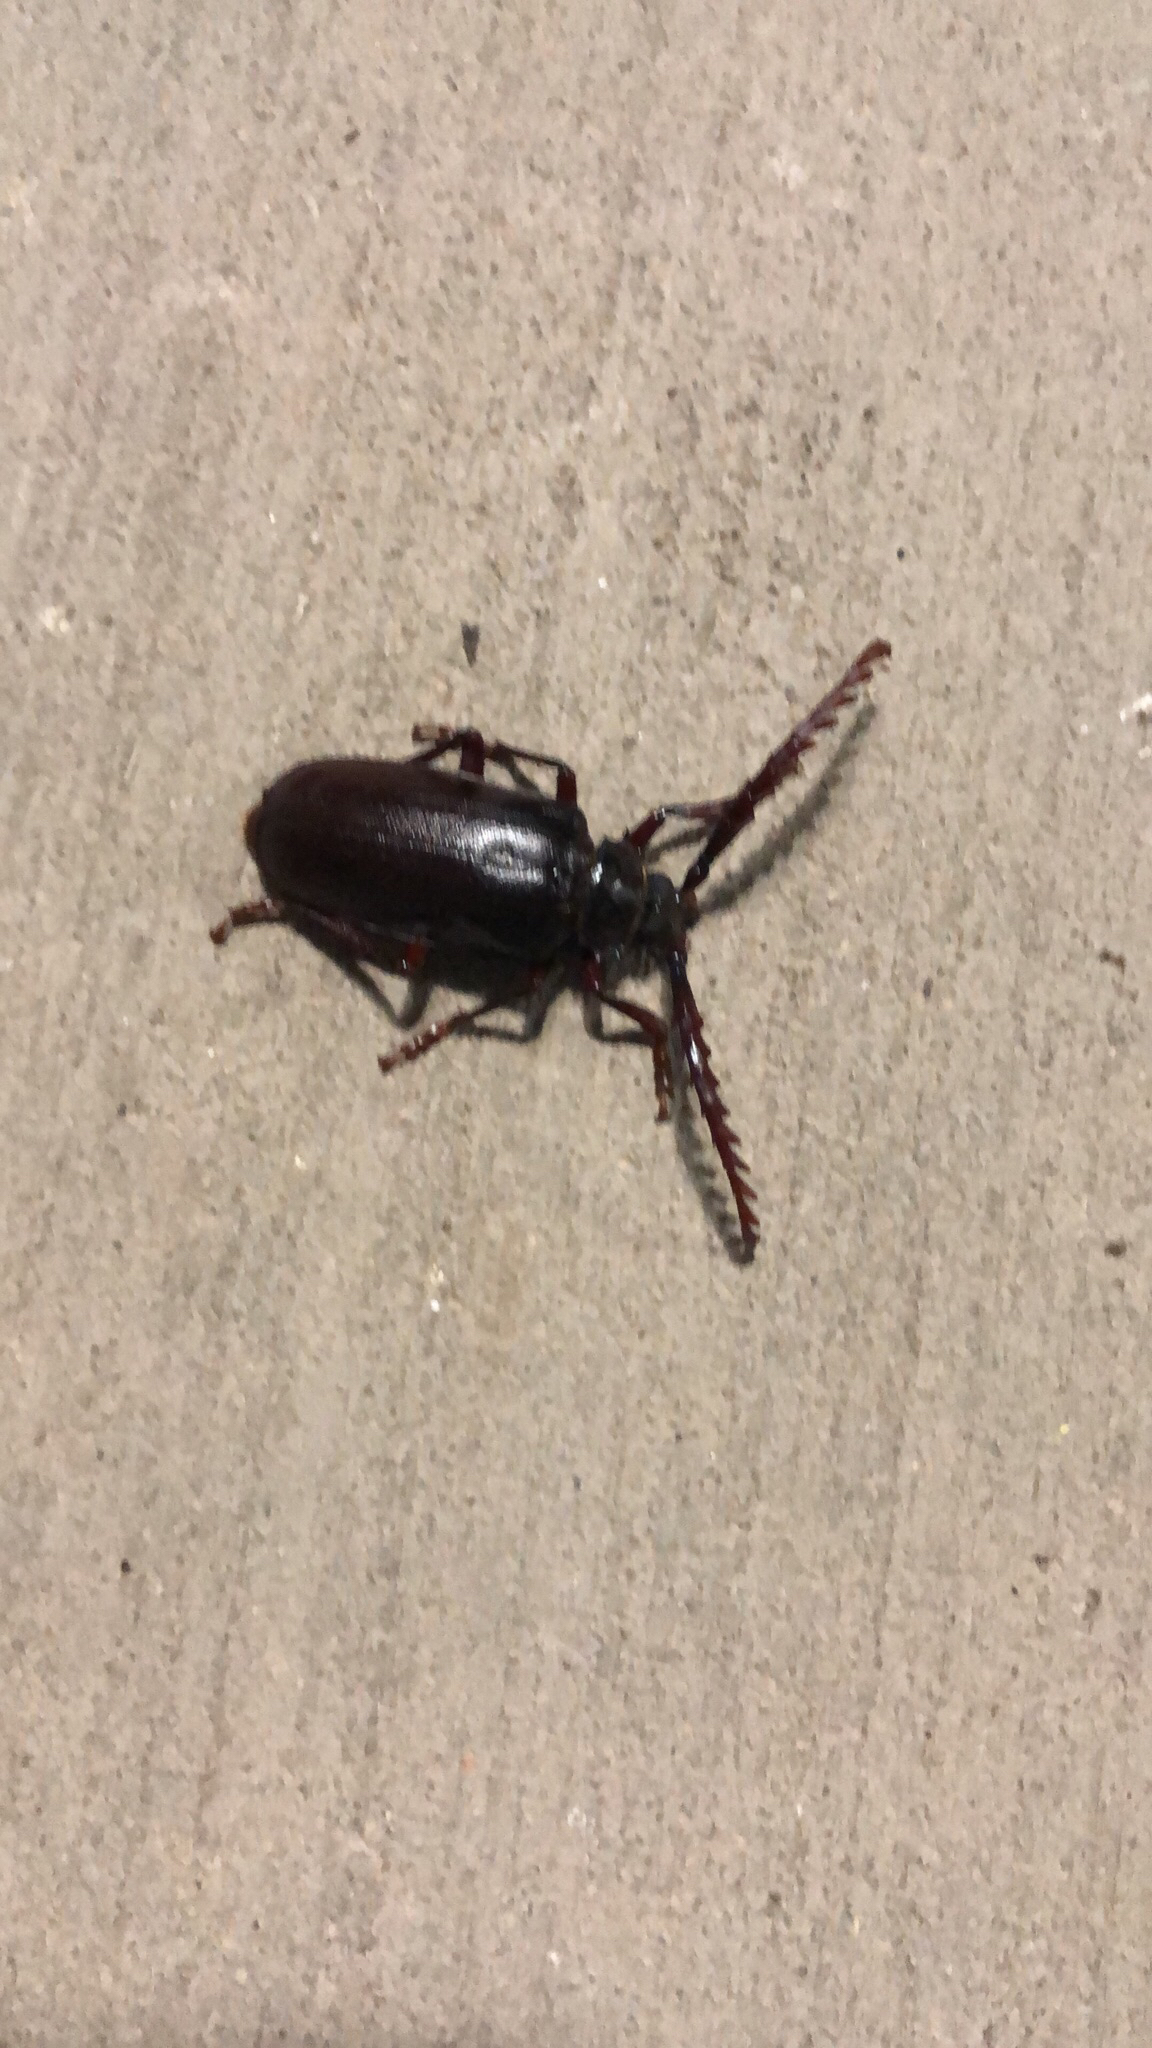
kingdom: Animalia
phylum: Arthropoda
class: Insecta
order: Coleoptera
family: Cerambycidae
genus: Prionus
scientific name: Prionus californicus
